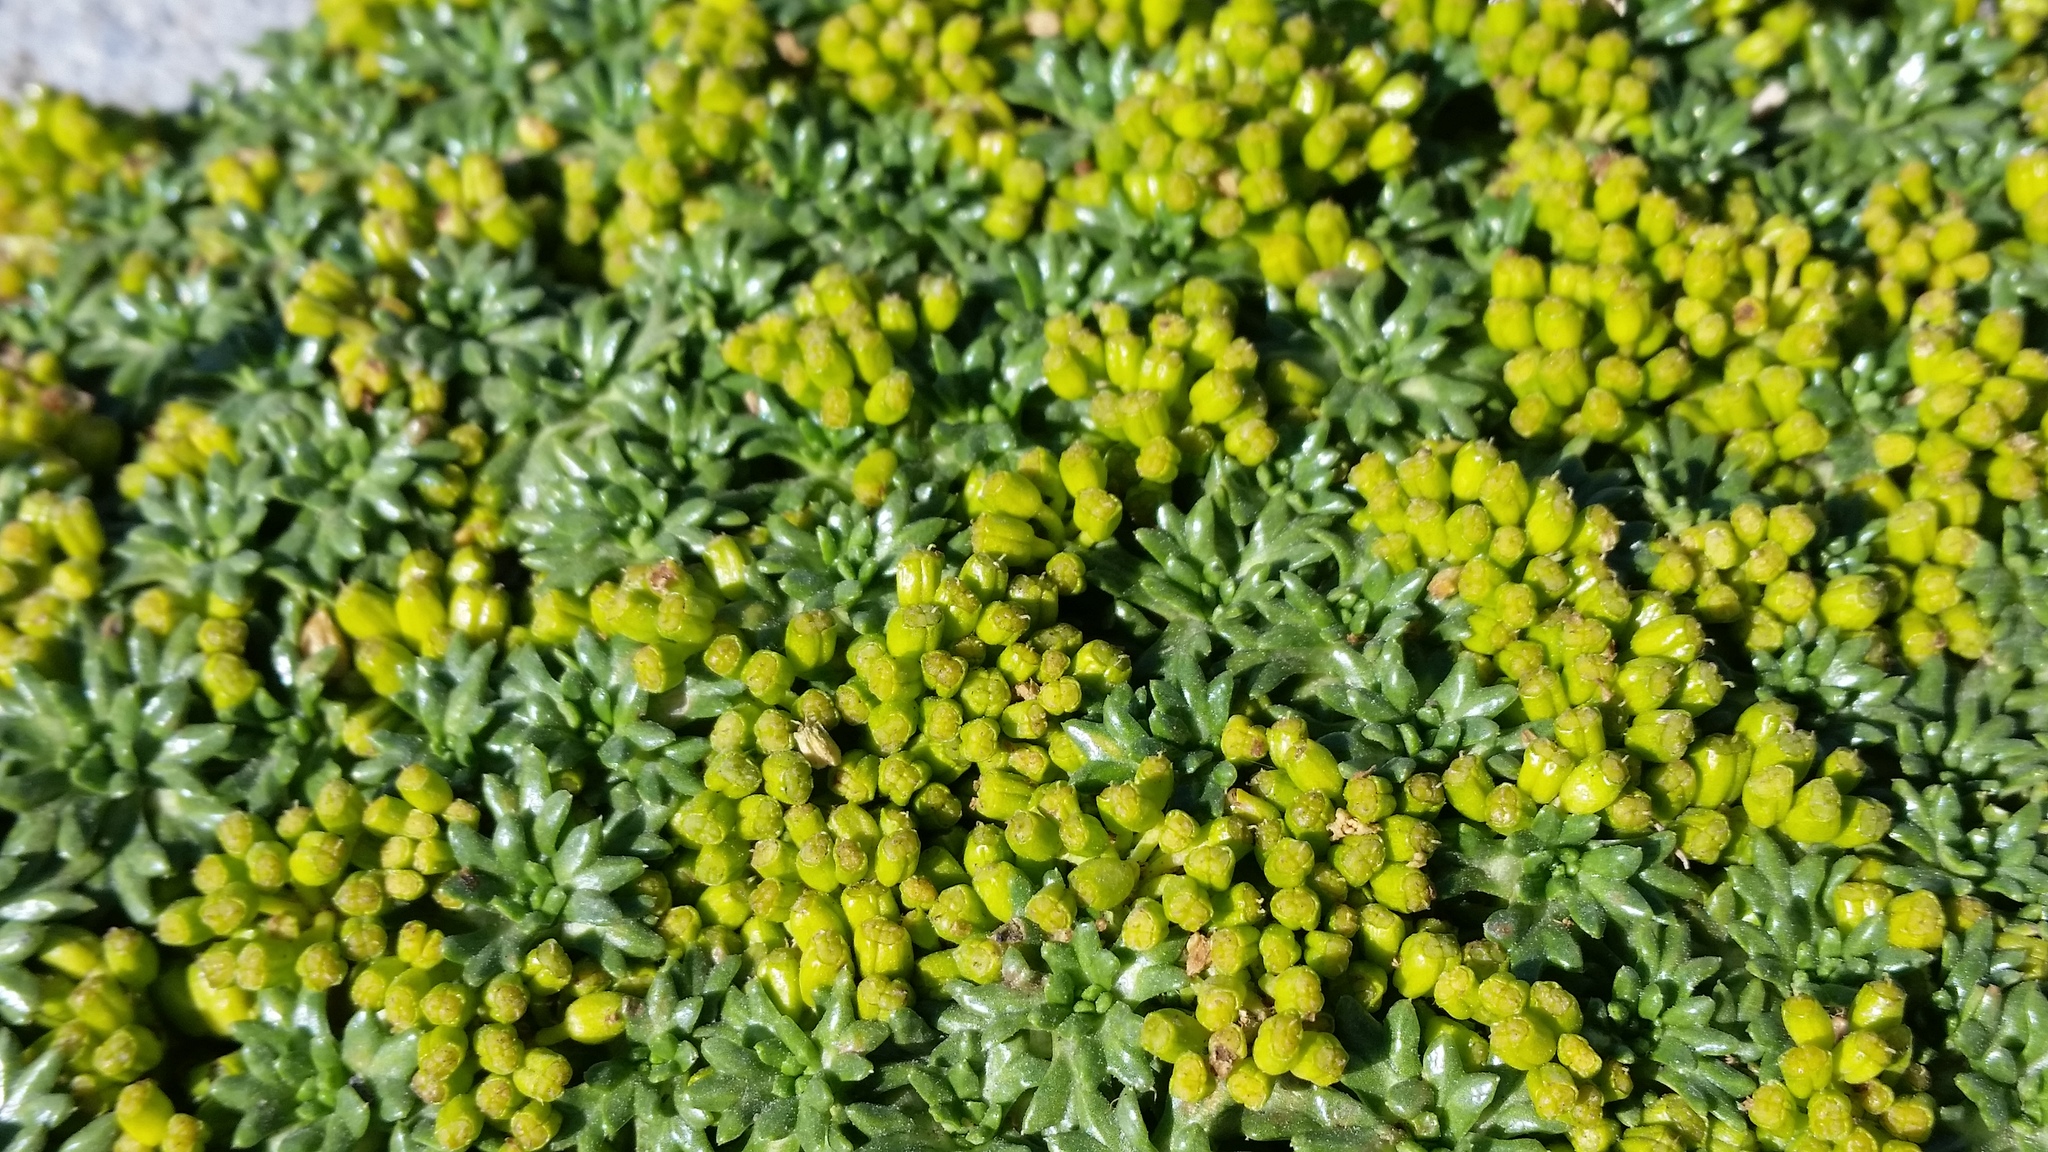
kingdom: Plantae
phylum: Tracheophyta
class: Magnoliopsida
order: Apiales
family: Apiaceae
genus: Azorella
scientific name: Azorella trifurcata
